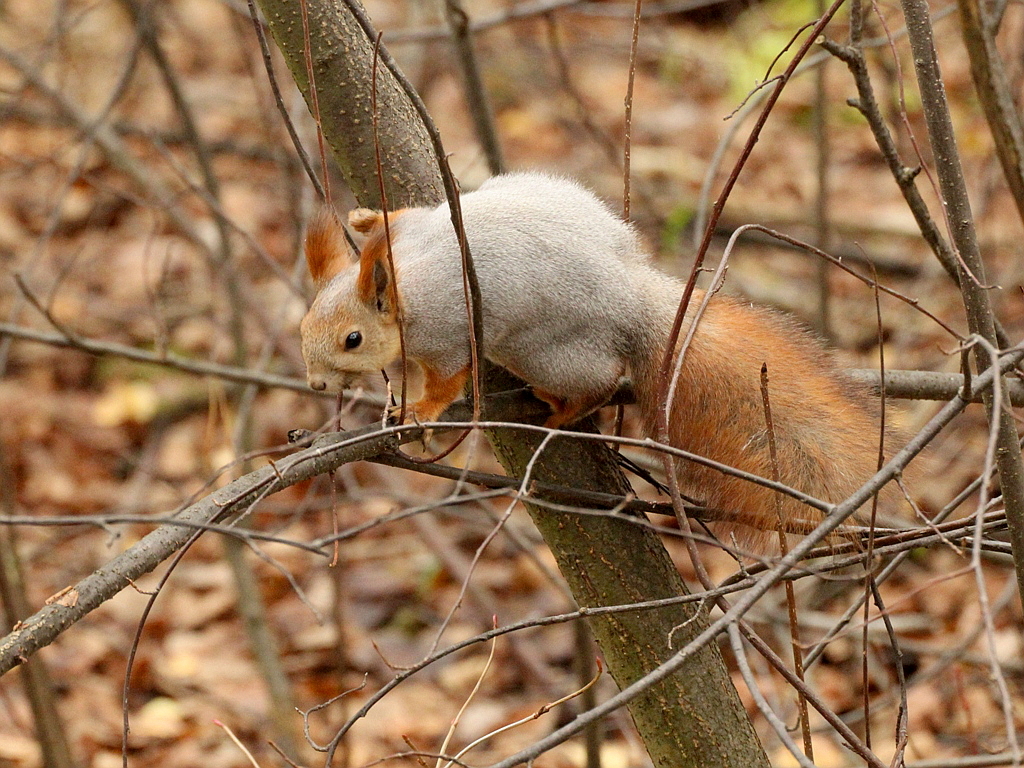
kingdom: Animalia
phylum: Chordata
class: Mammalia
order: Rodentia
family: Sciuridae
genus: Sciurus
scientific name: Sciurus vulgaris
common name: Eurasian red squirrel
